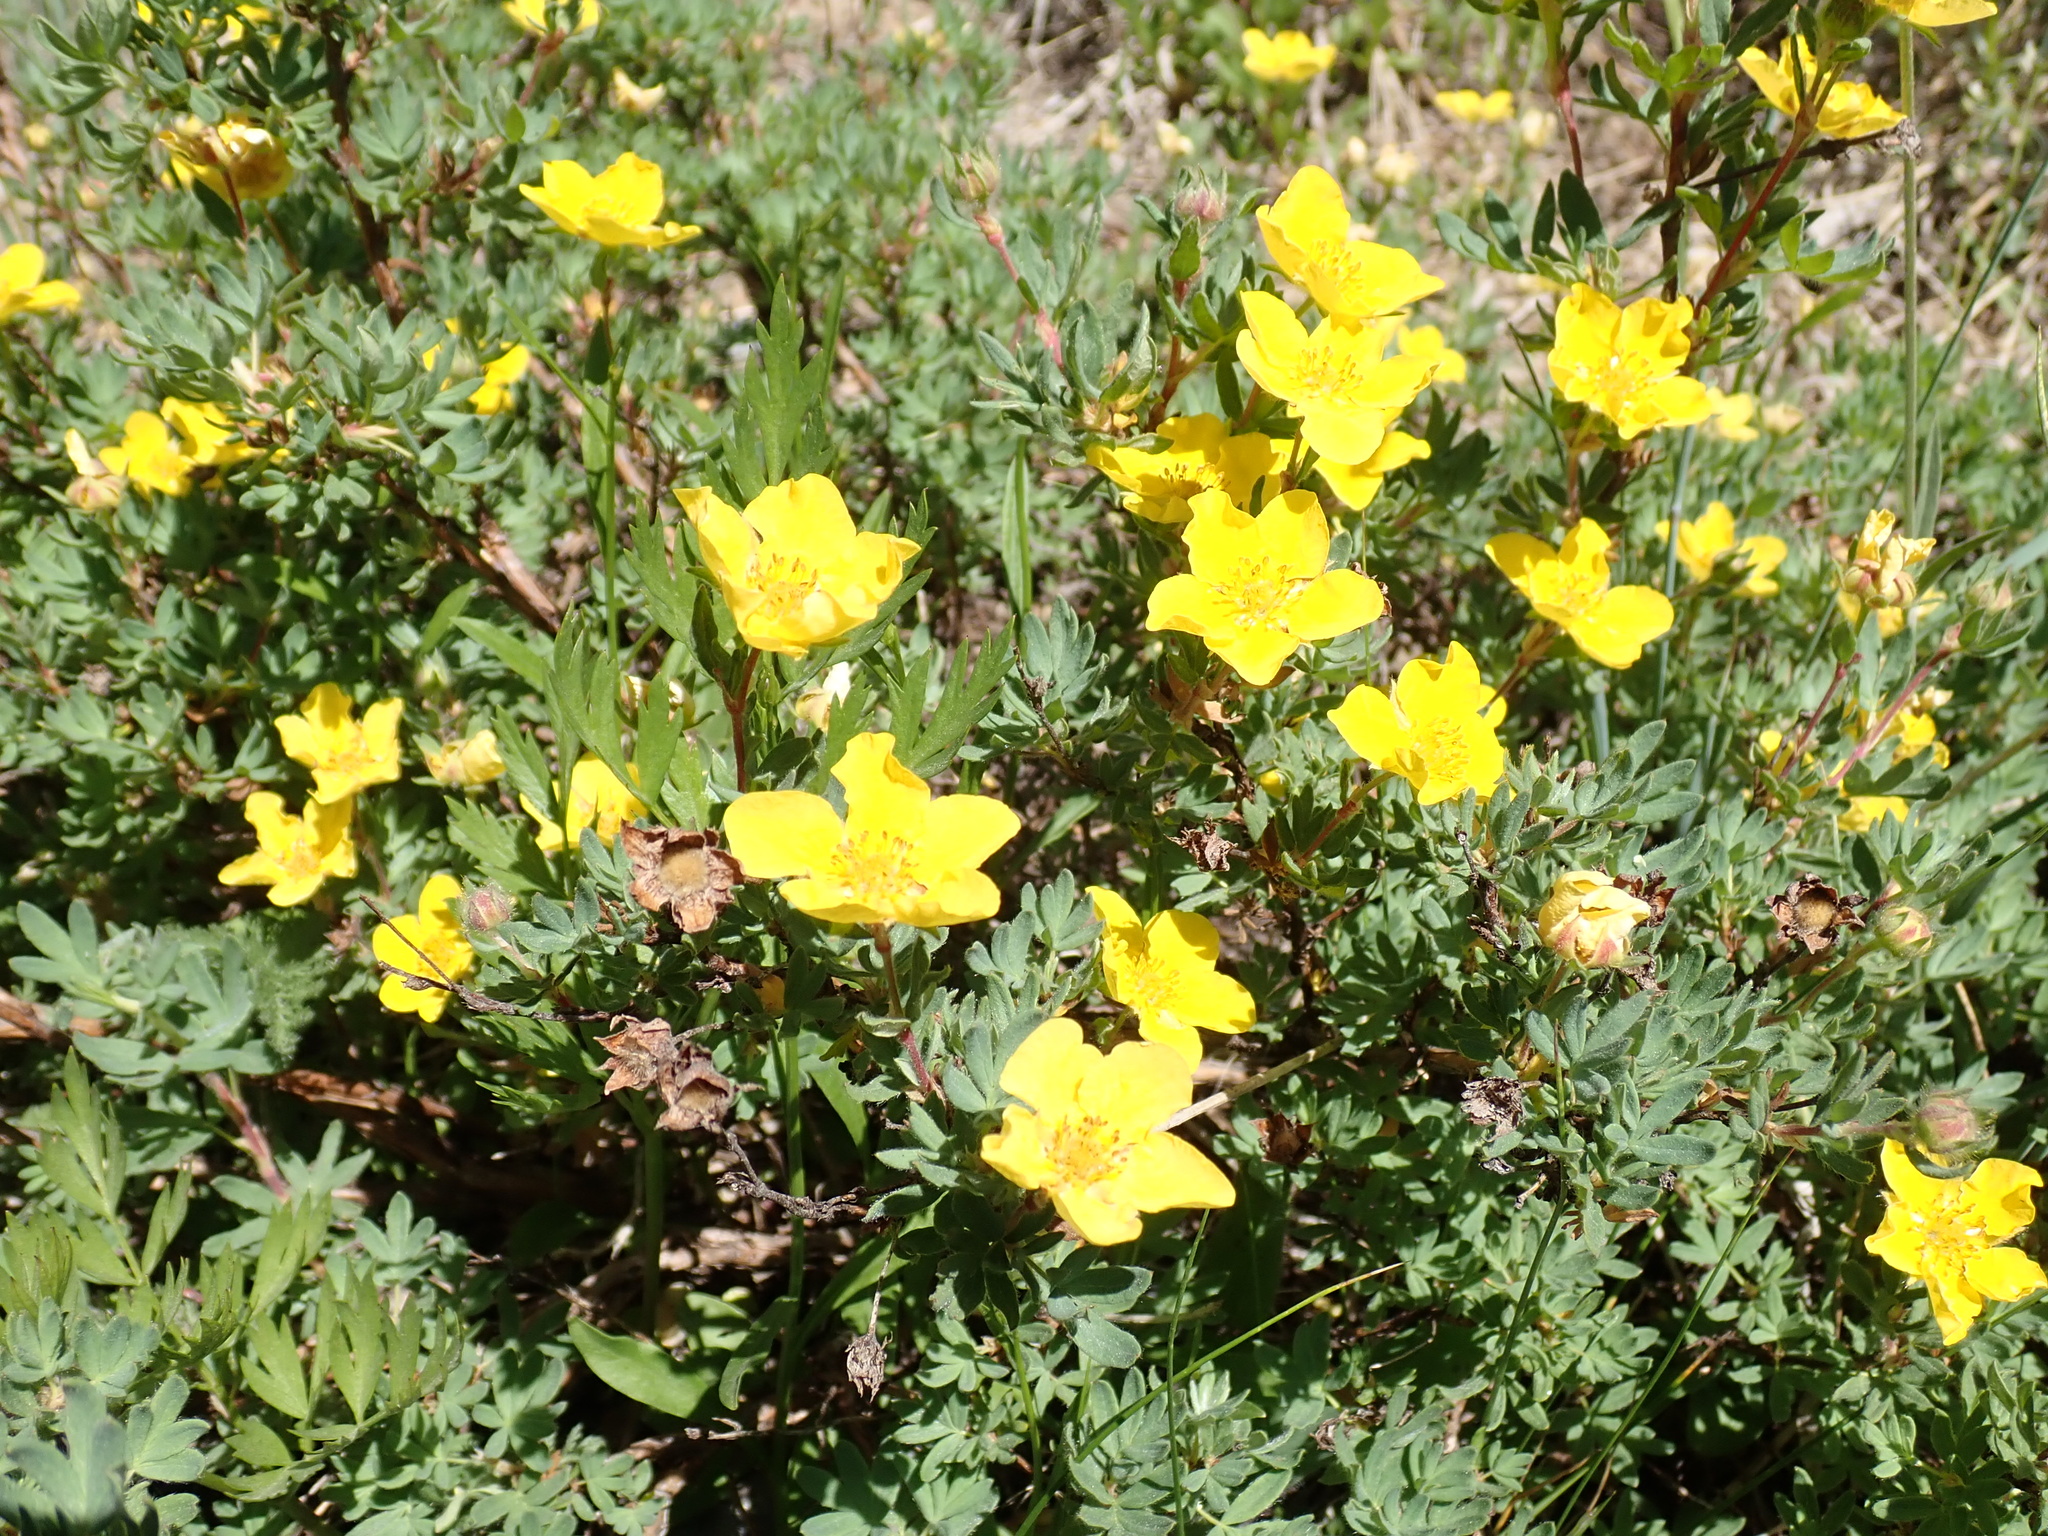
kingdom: Plantae
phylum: Tracheophyta
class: Magnoliopsida
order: Rosales
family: Rosaceae
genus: Dasiphora
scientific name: Dasiphora fruticosa
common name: Shrubby cinquefoil
